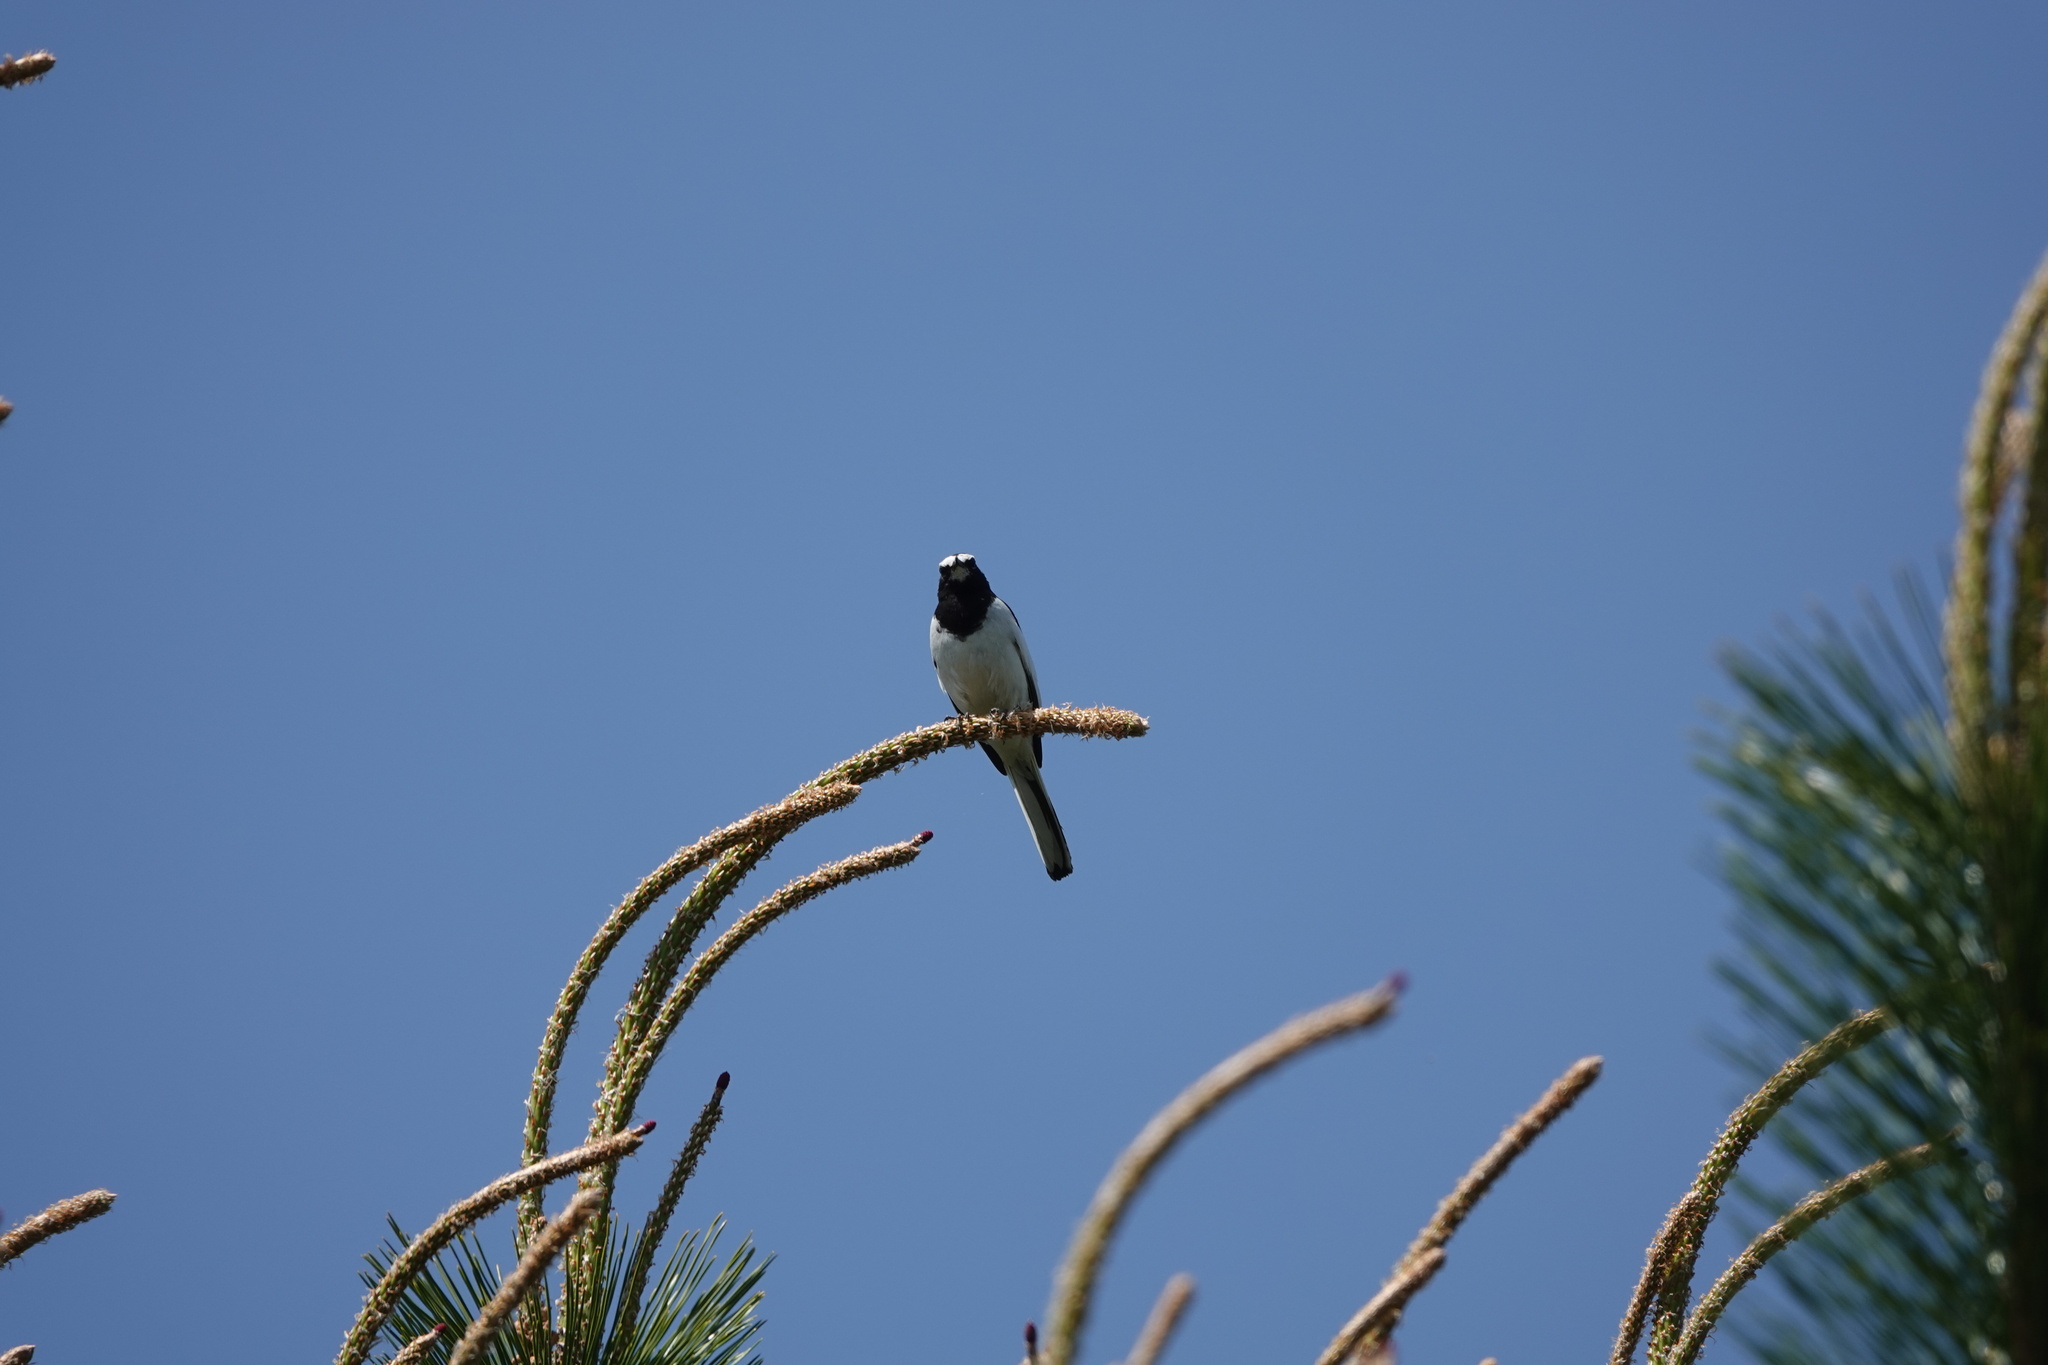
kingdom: Animalia
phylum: Chordata
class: Aves
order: Passeriformes
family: Motacillidae
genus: Motacilla
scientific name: Motacilla grandis
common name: Japanese wagtail
